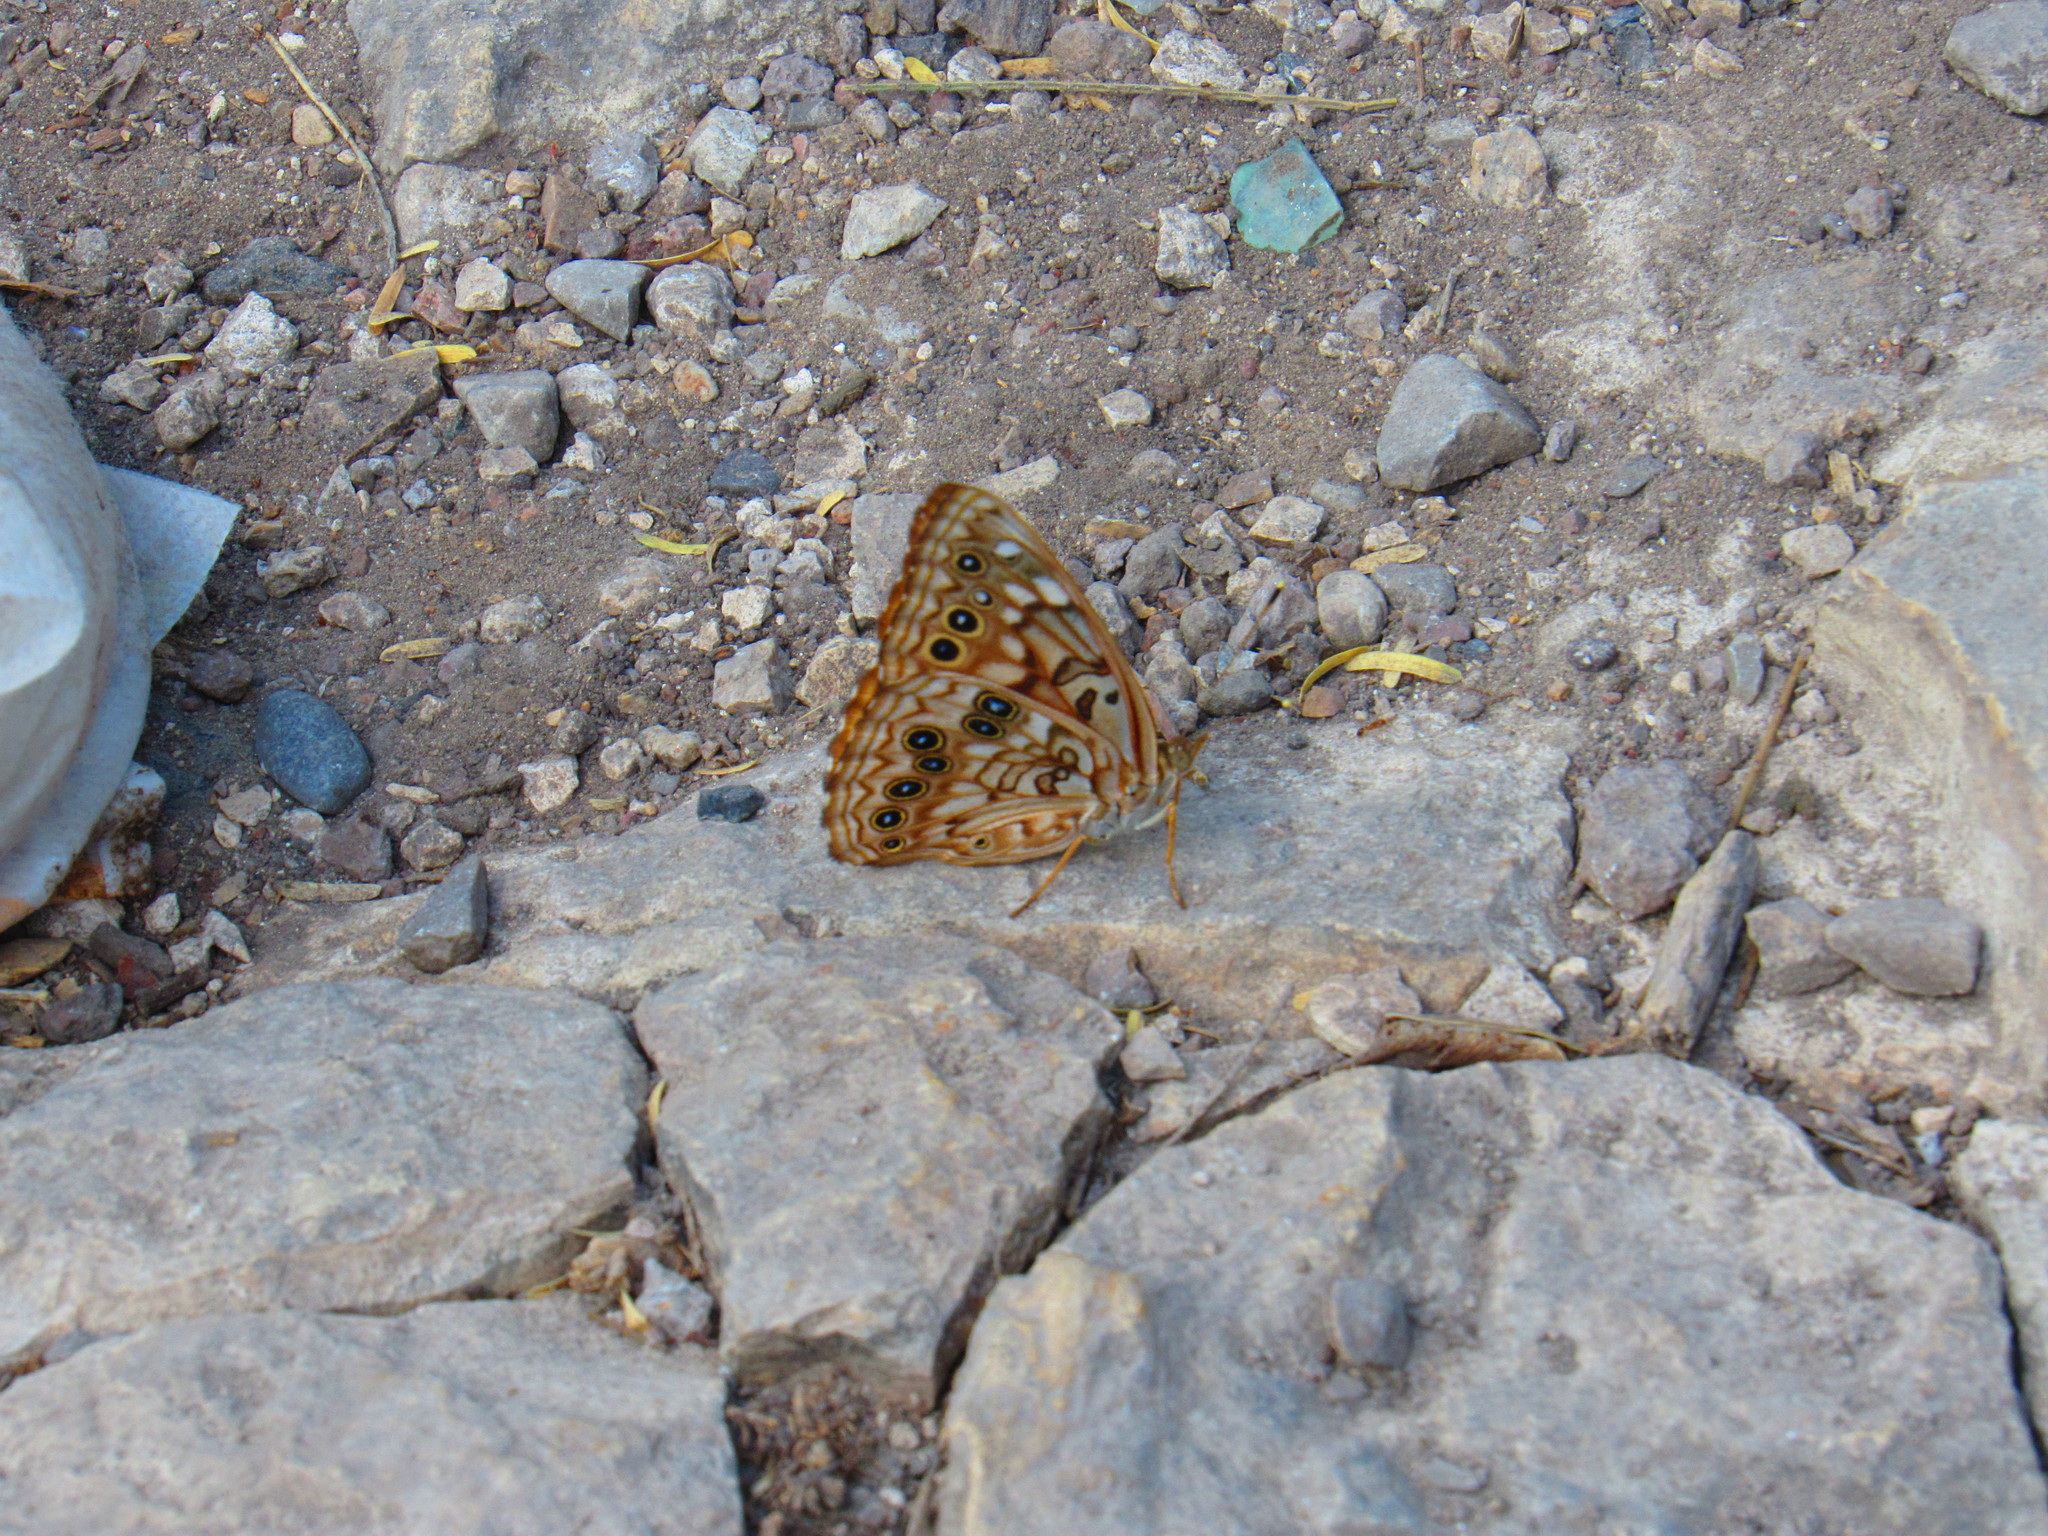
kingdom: Animalia
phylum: Arthropoda
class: Insecta
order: Lepidoptera
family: Nymphalidae
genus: Asterocampa
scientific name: Asterocampa celtis
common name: Hackberry emperor
